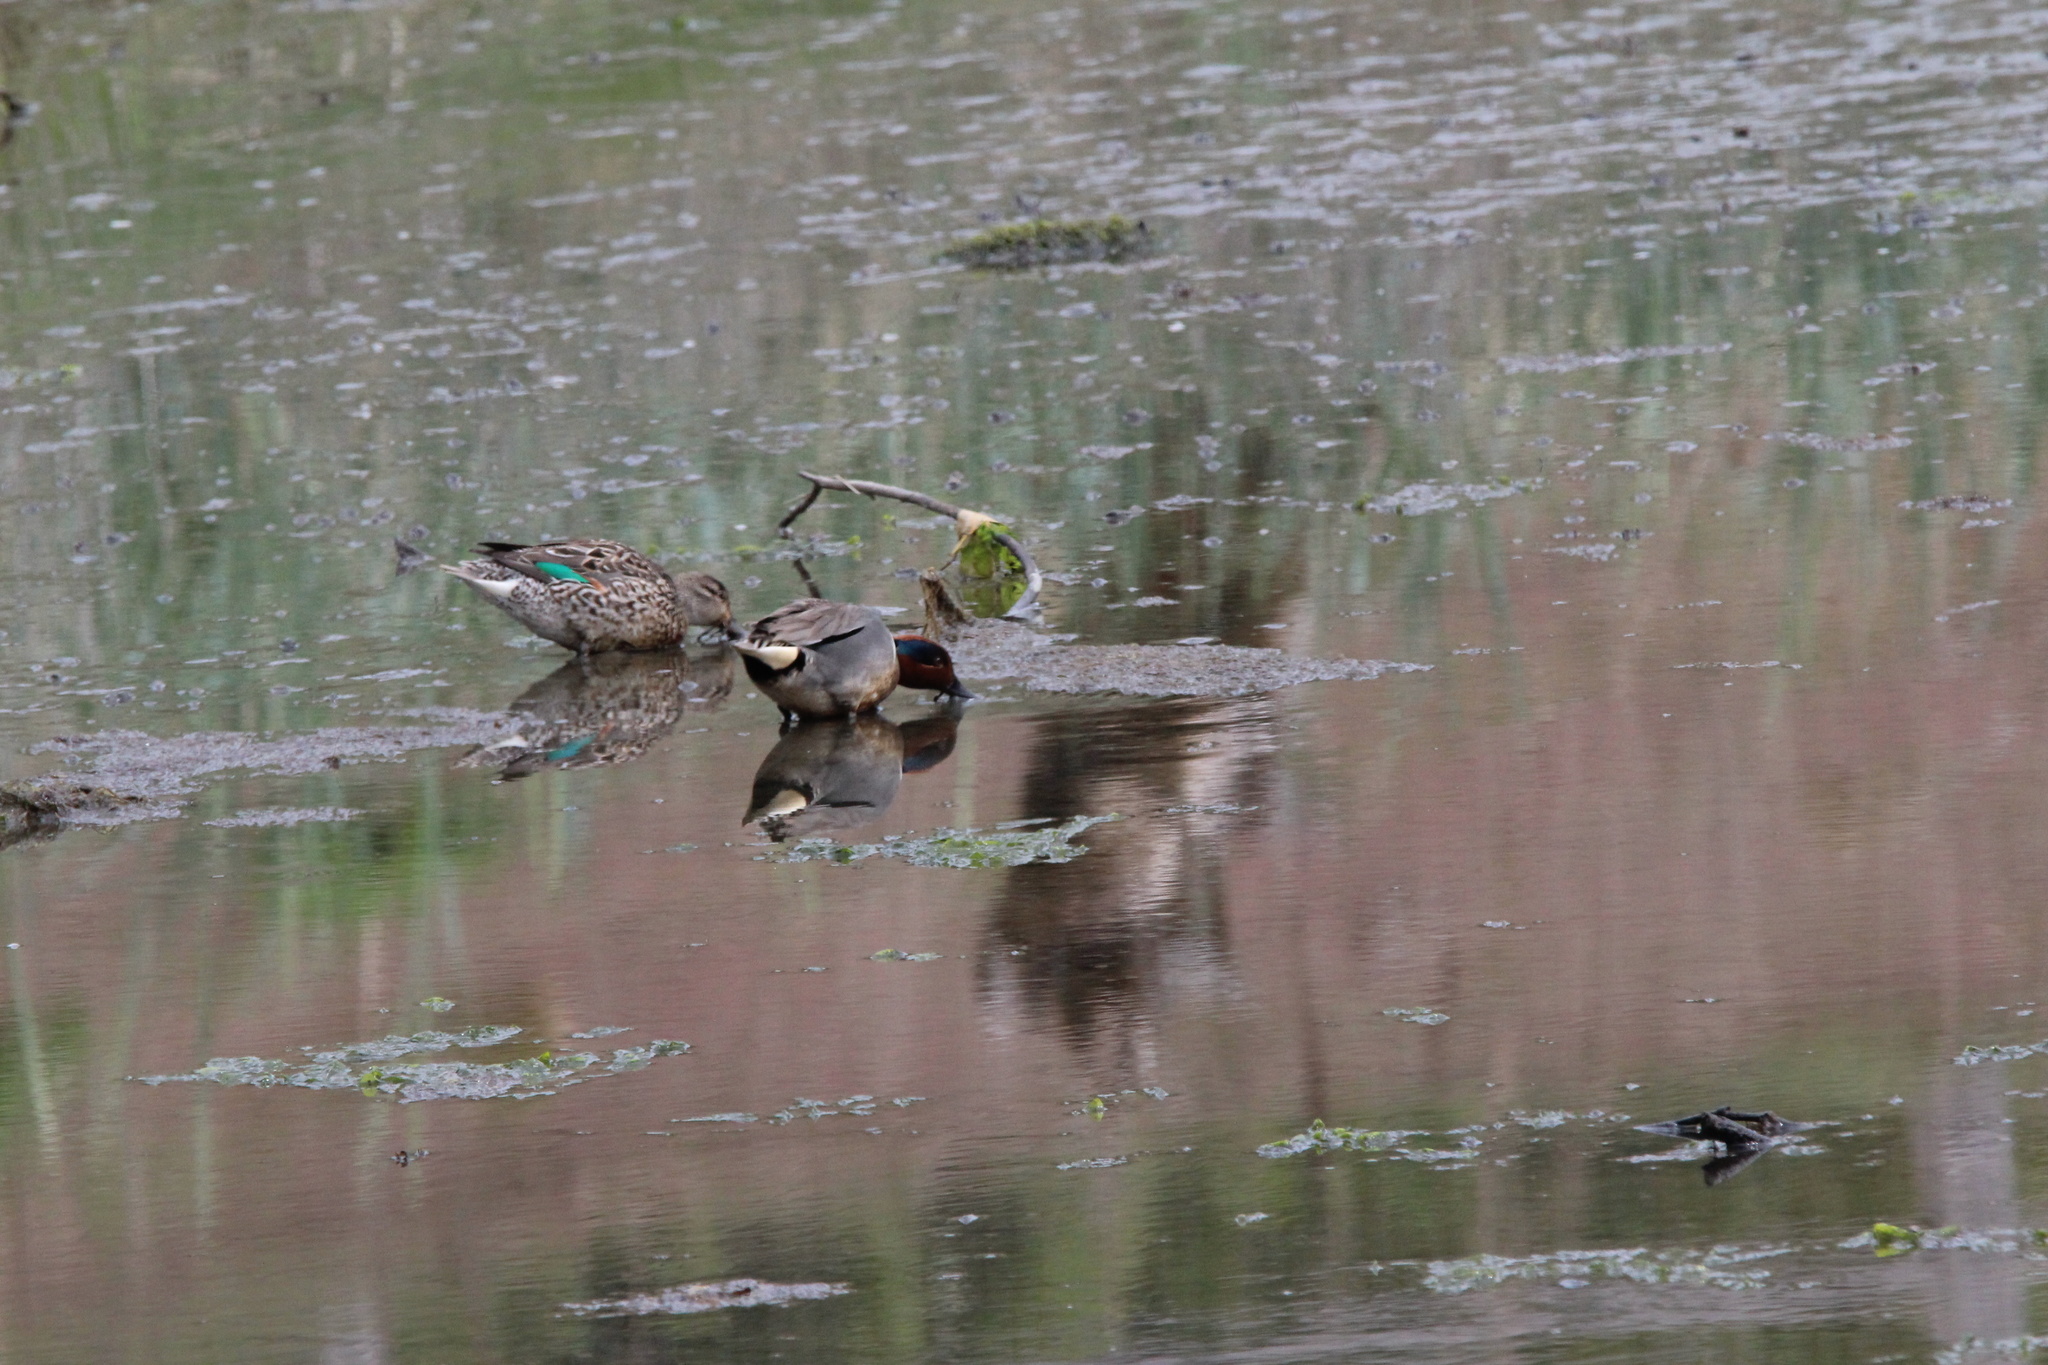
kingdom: Animalia
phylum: Chordata
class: Aves
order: Anseriformes
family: Anatidae
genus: Anas
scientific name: Anas carolinensis
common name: Green-winged teal
